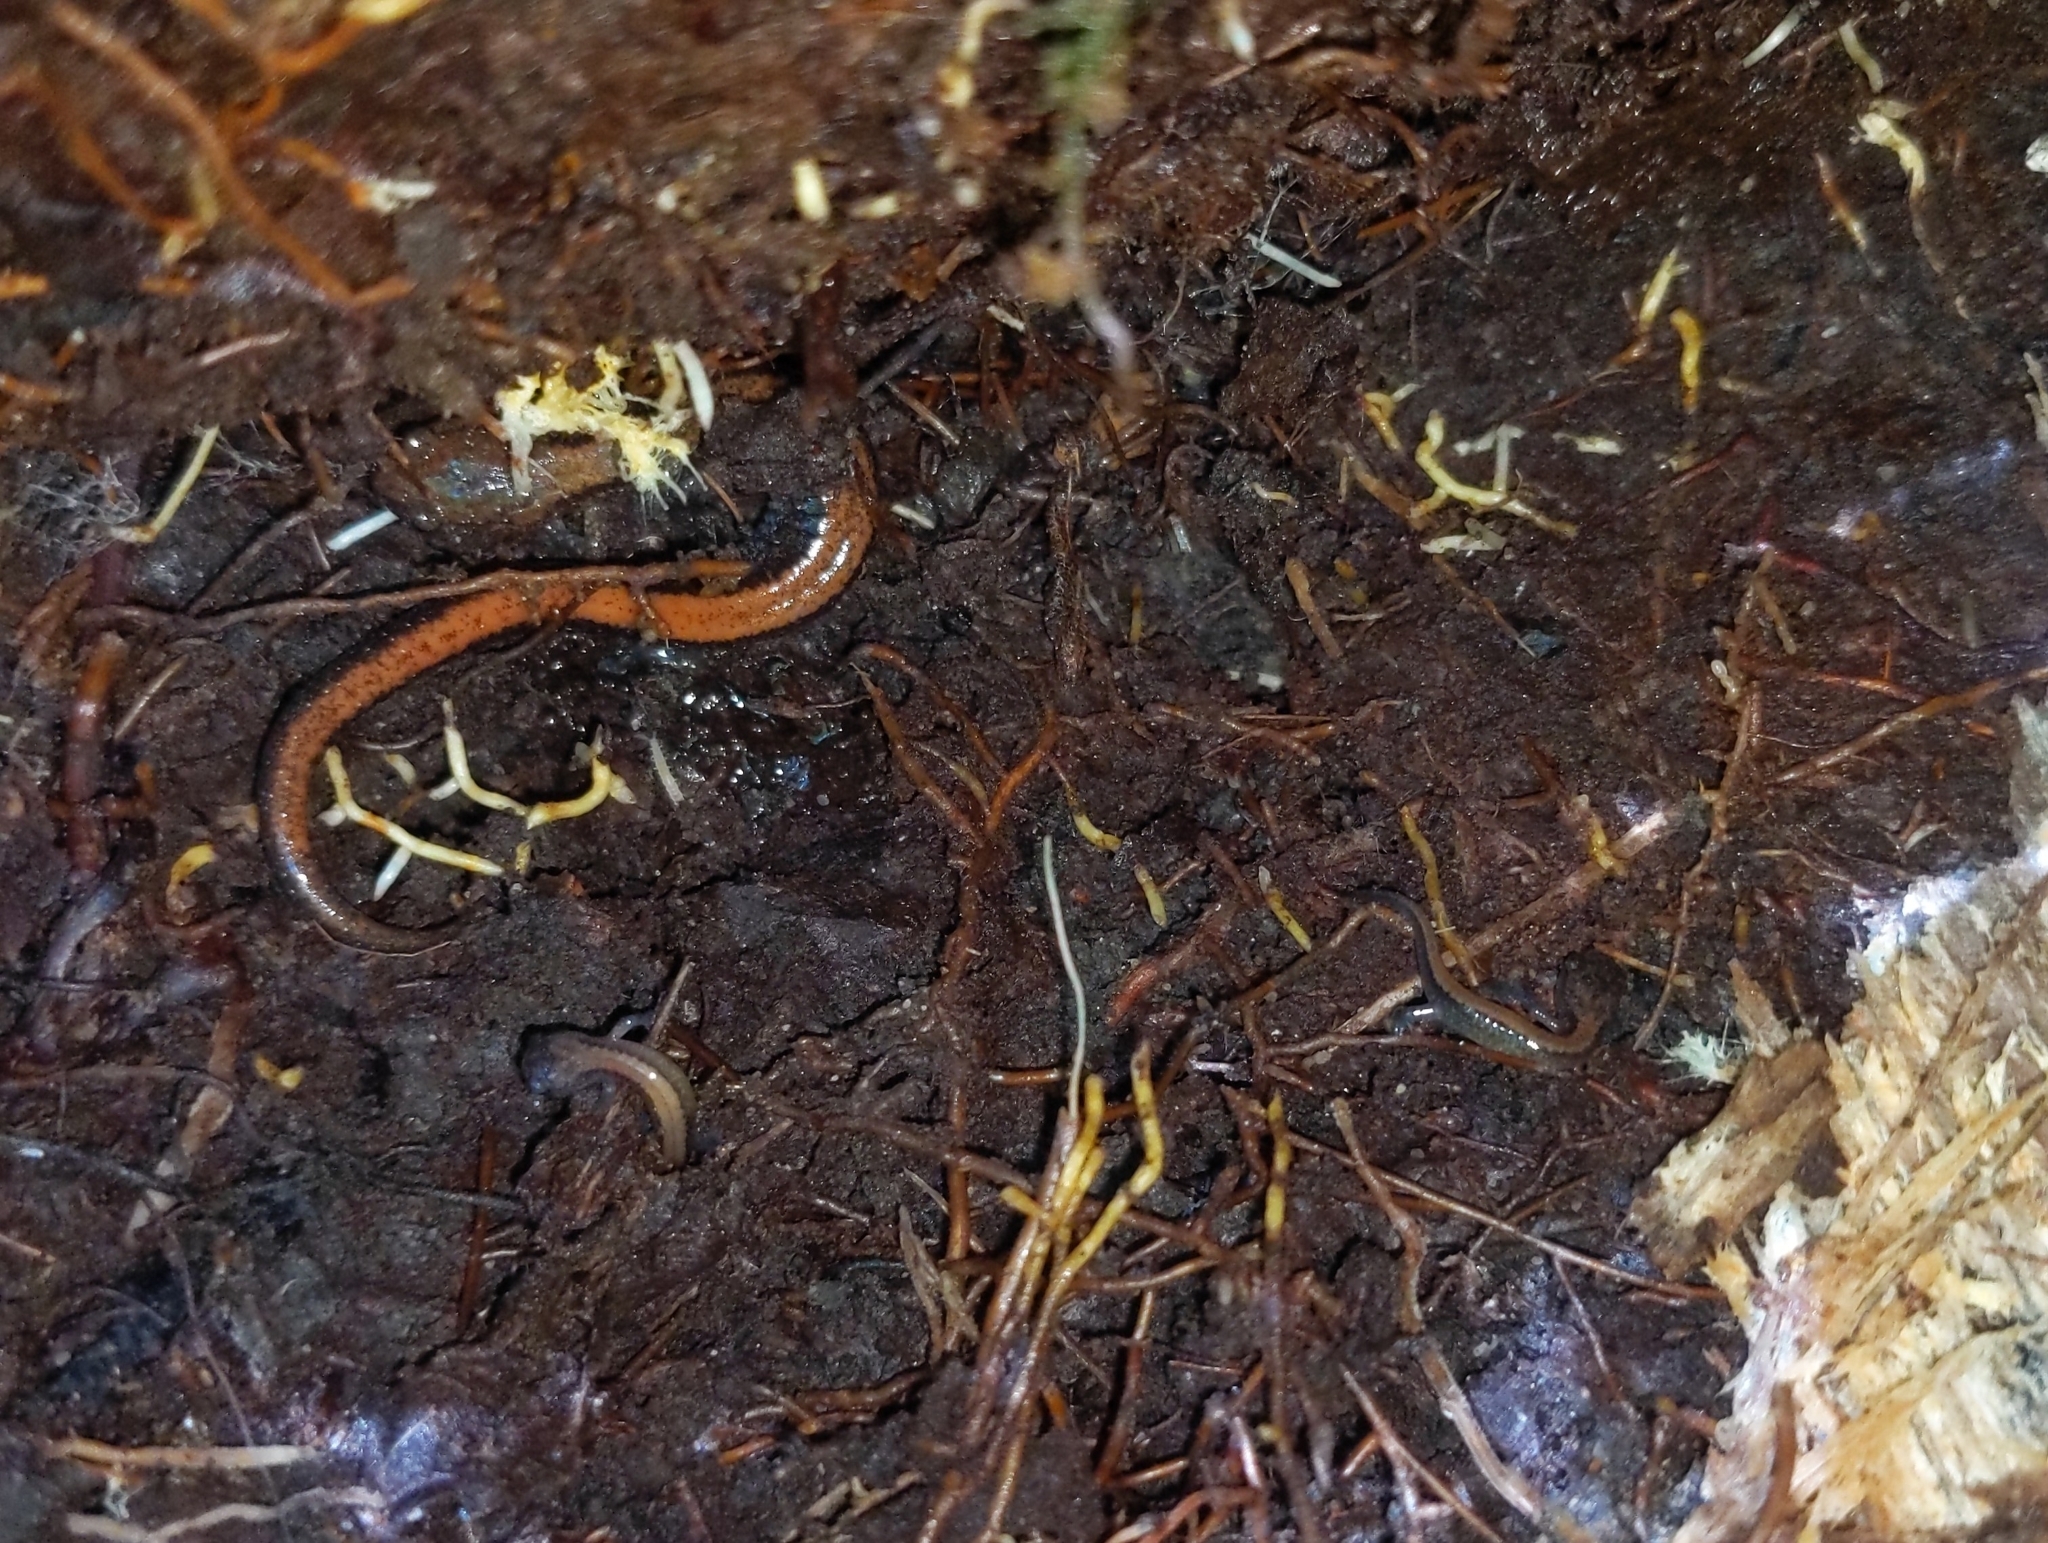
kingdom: Animalia
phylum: Chordata
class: Amphibia
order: Caudata
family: Plethodontidae
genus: Plethodon
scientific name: Plethodon cinereus
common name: Redback salamander
